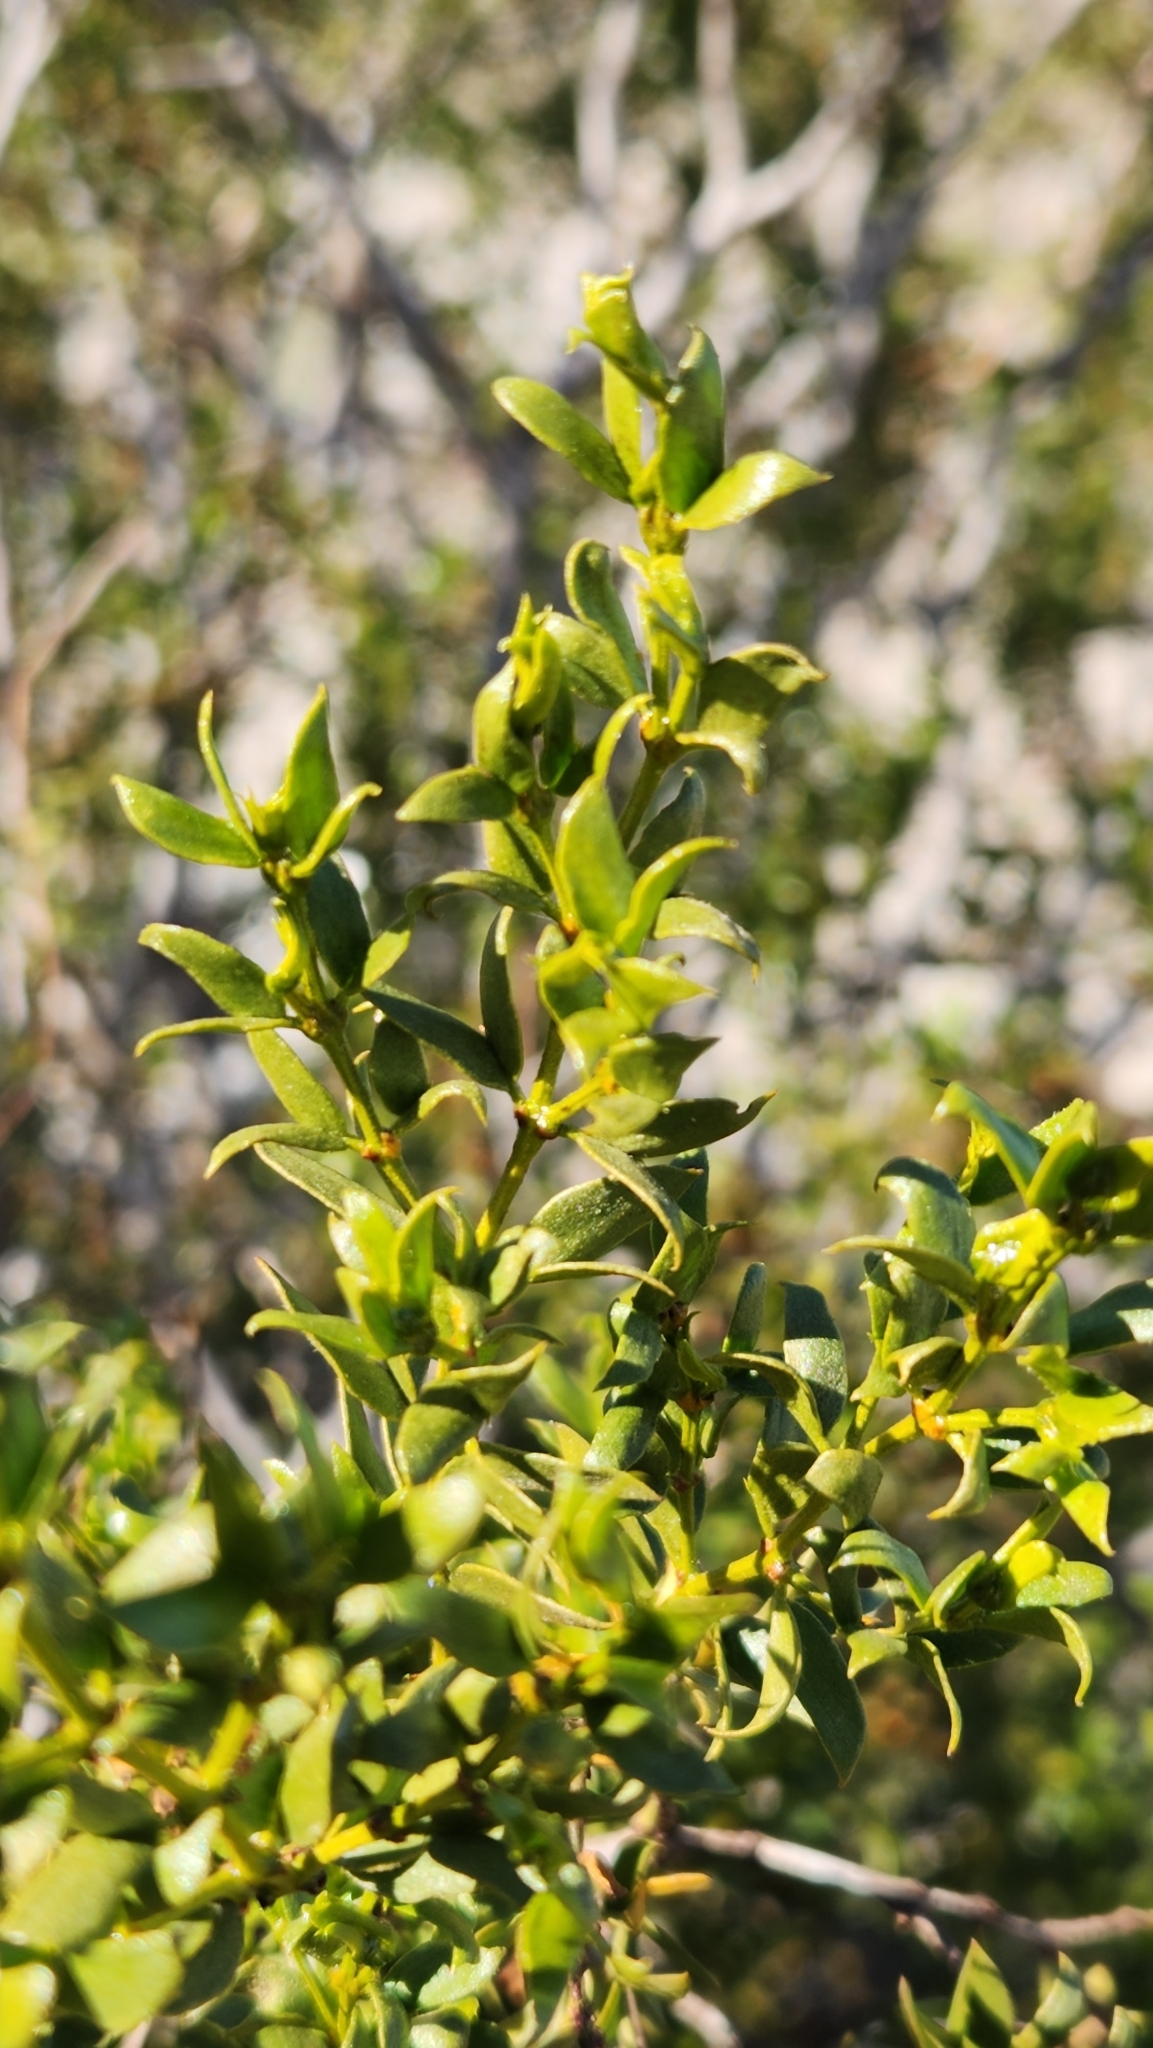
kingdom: Plantae
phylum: Tracheophyta
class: Magnoliopsida
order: Zygophyllales
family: Zygophyllaceae
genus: Larrea
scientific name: Larrea tridentata
